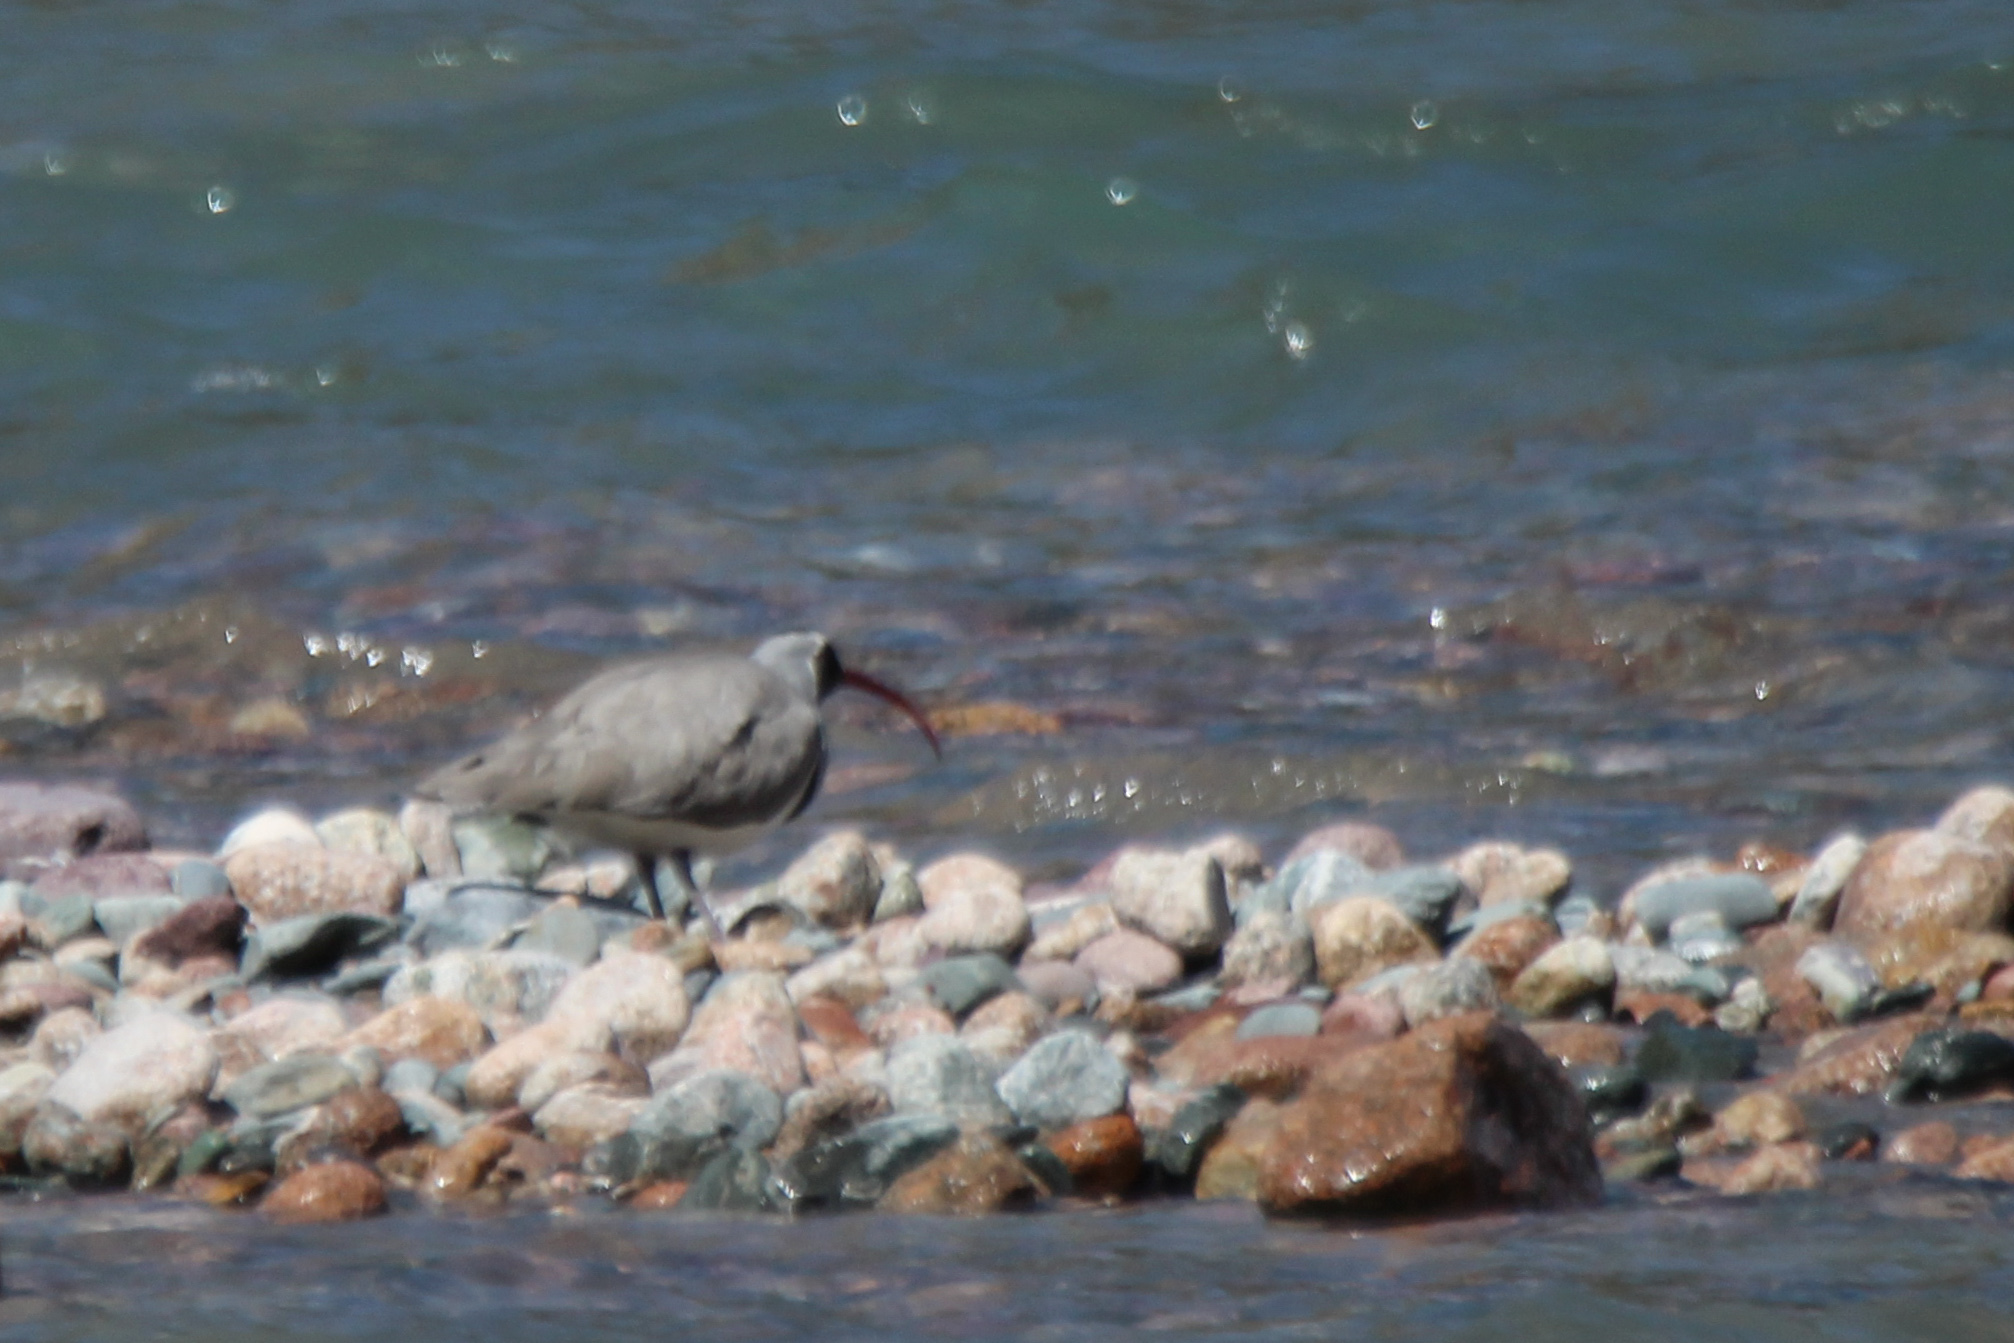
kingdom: Animalia
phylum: Chordata
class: Aves
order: Charadriiformes
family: Ibidorhynchidae
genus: Ibidorhyncha
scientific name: Ibidorhyncha struthersii
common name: Ibisbill
